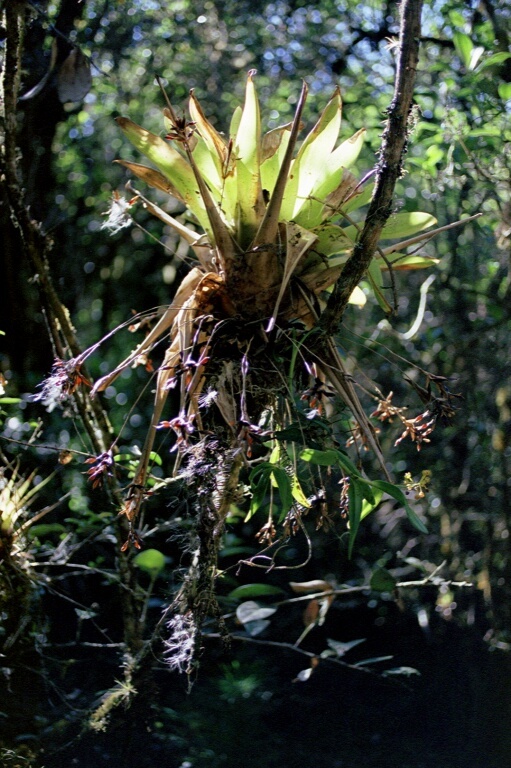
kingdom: Plantae
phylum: Tracheophyta
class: Liliopsida
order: Poales
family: Bromeliaceae
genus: Tillandsia
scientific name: Tillandsia complanata
